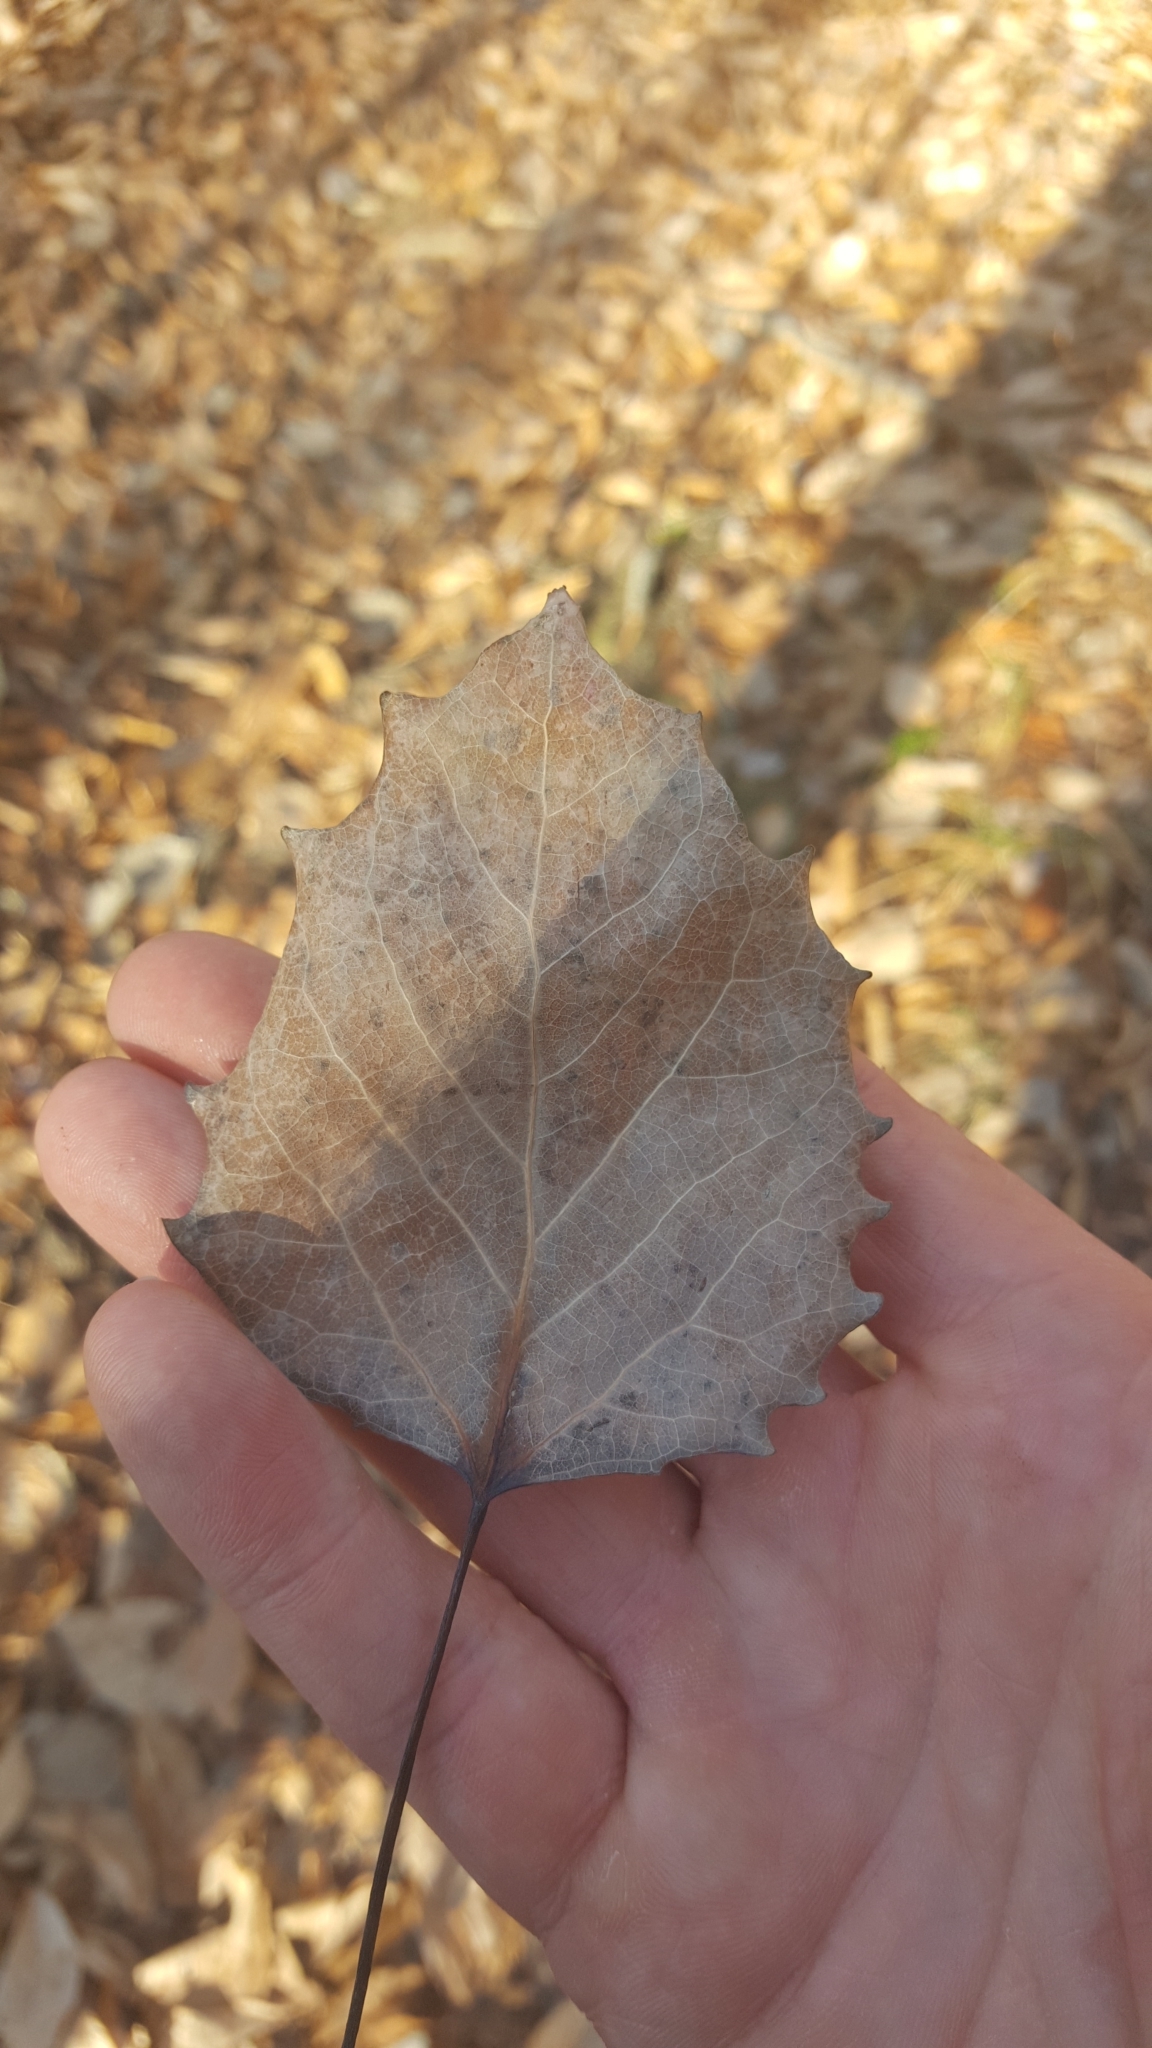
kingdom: Plantae
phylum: Tracheophyta
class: Magnoliopsida
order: Malpighiales
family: Salicaceae
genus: Populus
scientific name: Populus grandidentata
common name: Bigtooth aspen
